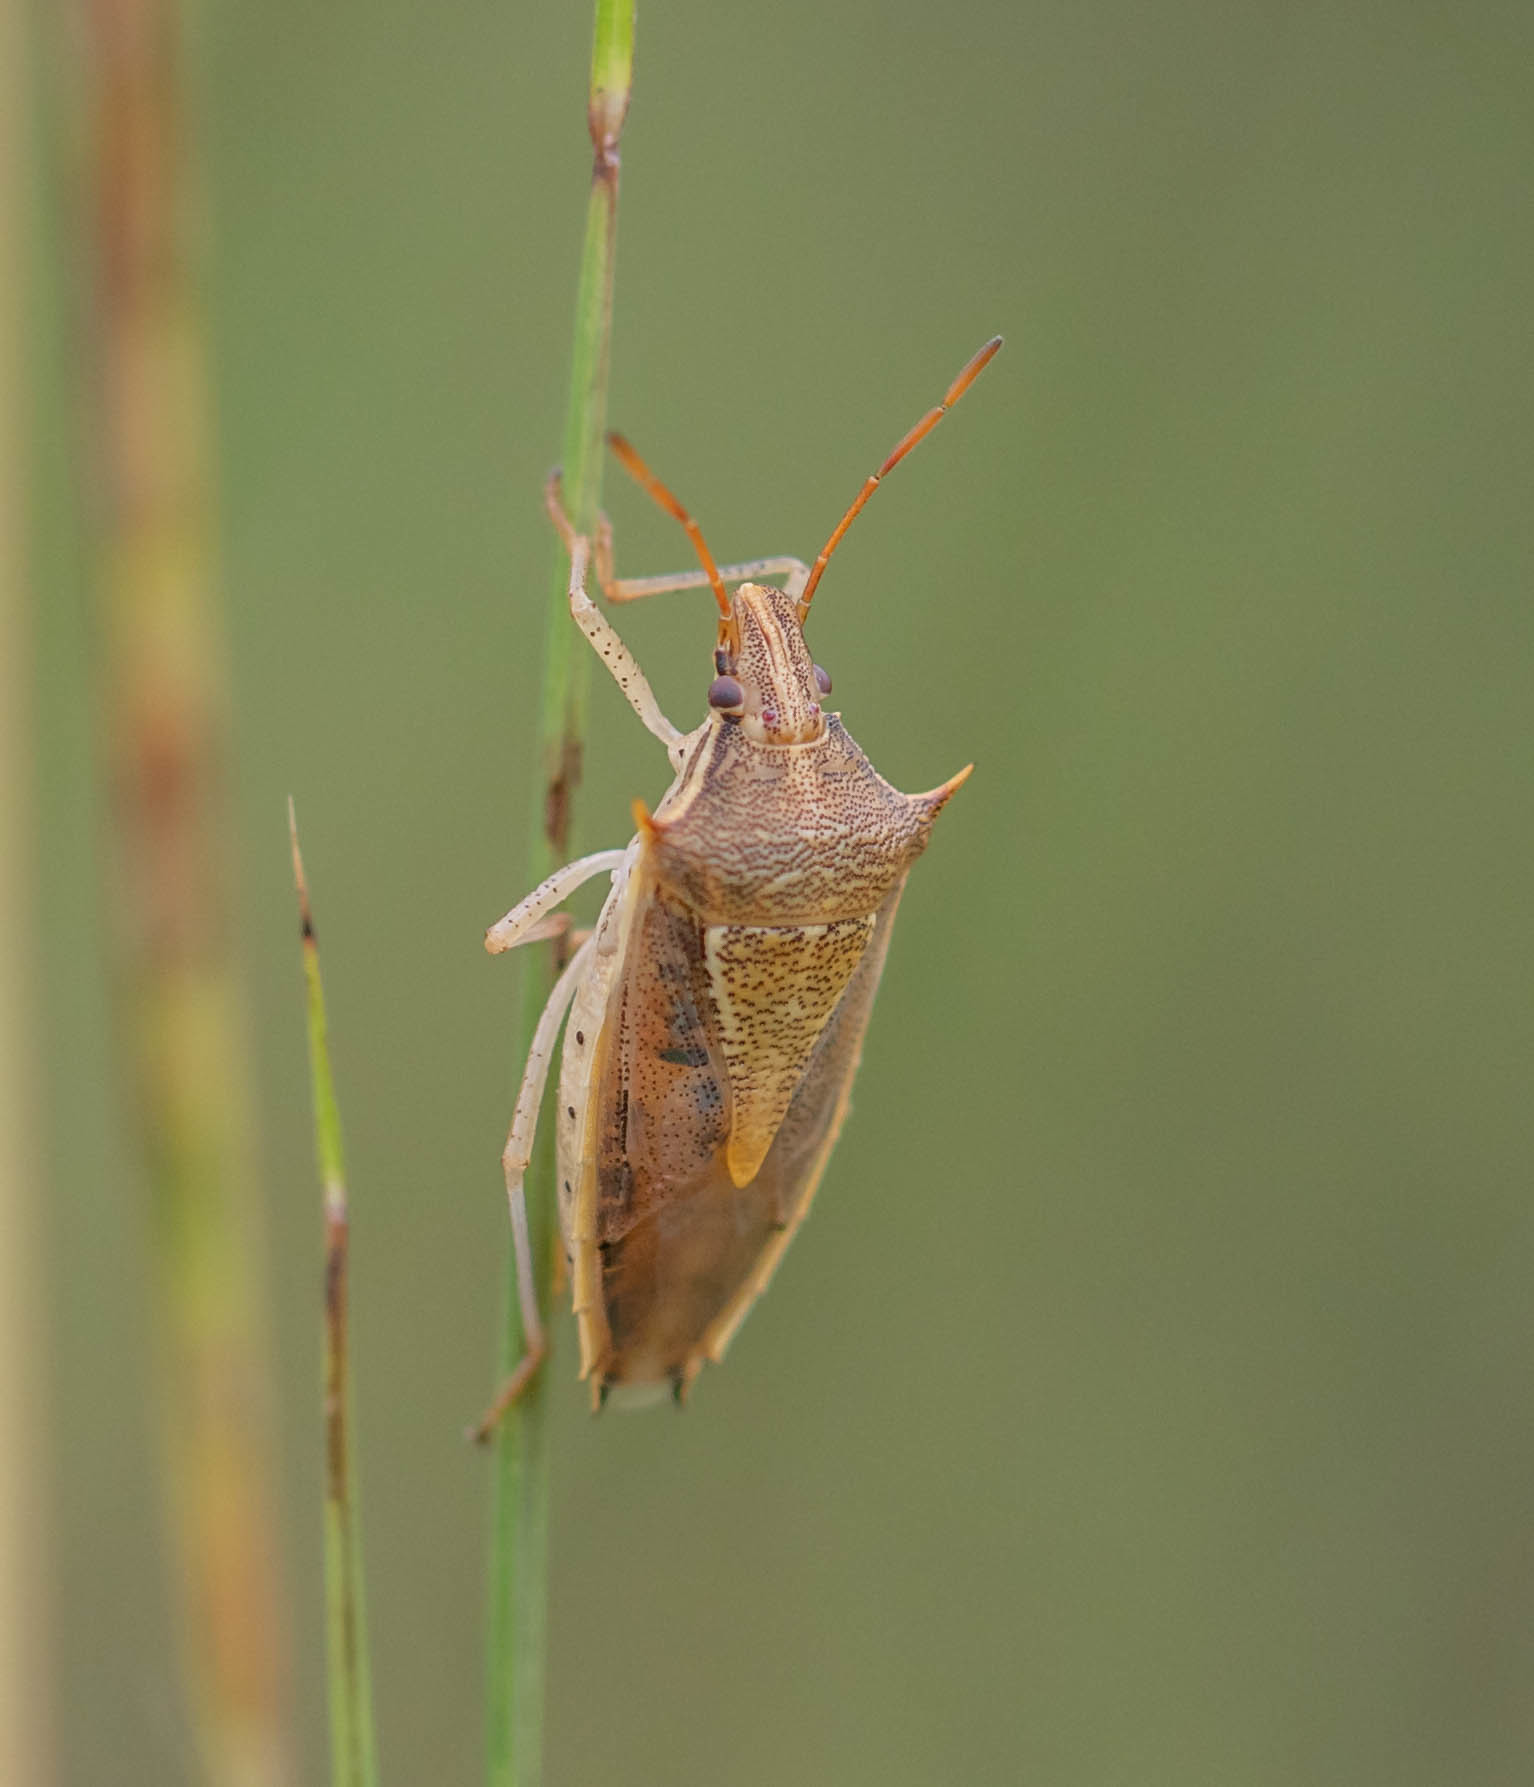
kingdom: Animalia
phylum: Arthropoda
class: Insecta
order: Hemiptera
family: Pentatomidae
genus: Oebalus
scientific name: Oebalus pugnax
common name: Rice stink bug
